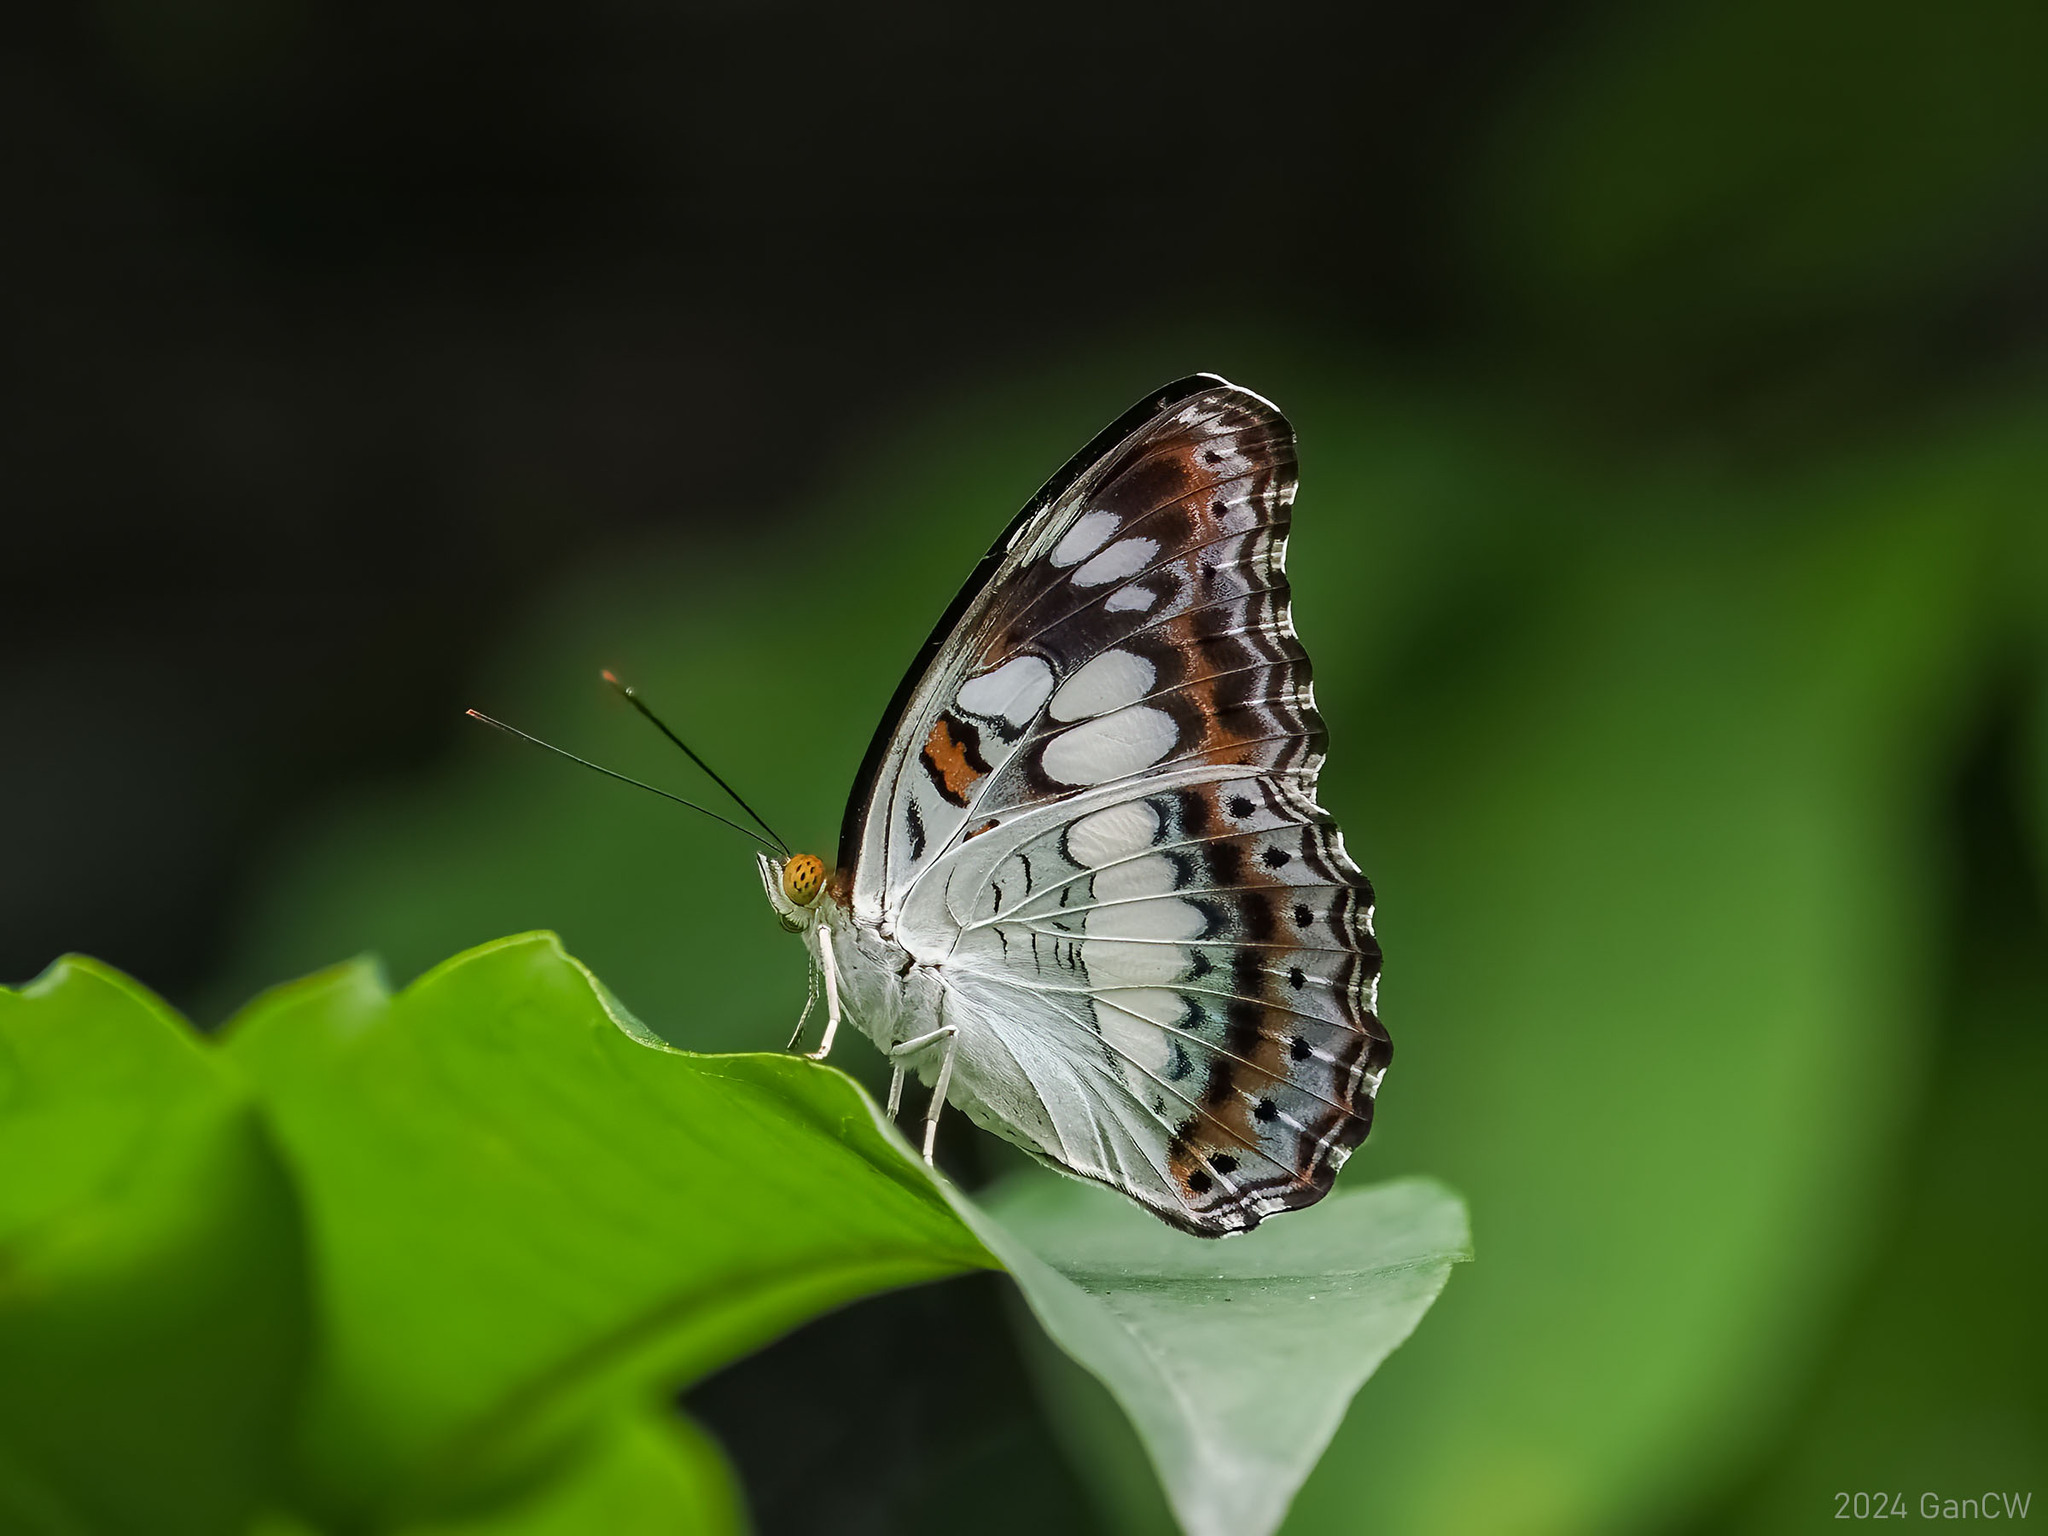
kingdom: Animalia
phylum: Arthropoda
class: Insecta
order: Lepidoptera
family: Nymphalidae
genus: Limenitis
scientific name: Limenitis Moduza procris
